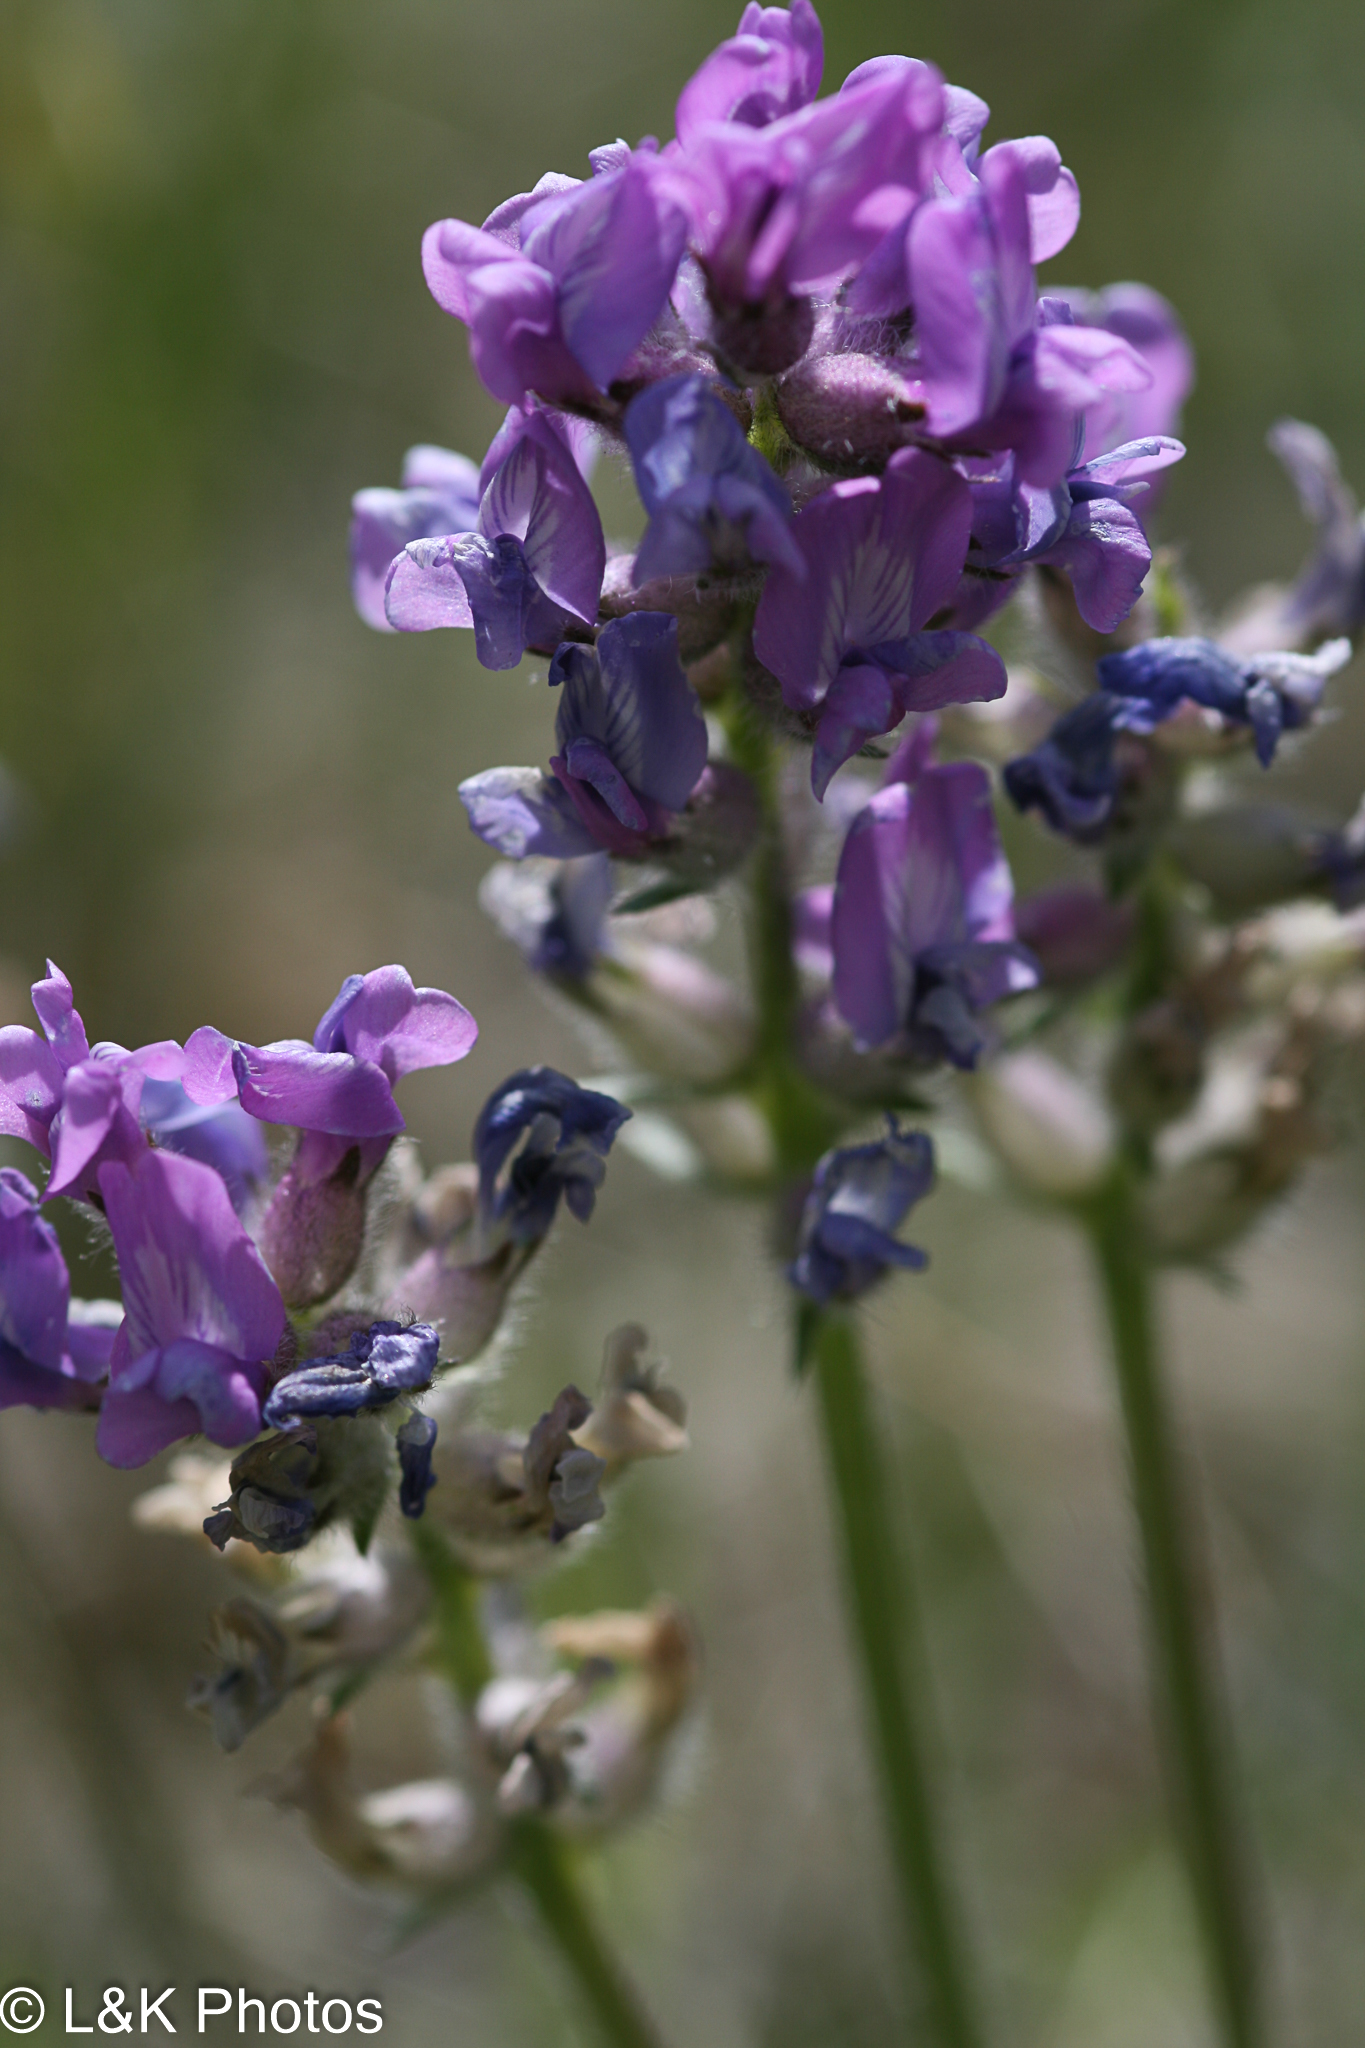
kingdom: Plantae
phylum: Tracheophyta
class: Magnoliopsida
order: Fabales
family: Fabaceae
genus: Oxytropis
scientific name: Oxytropis jordalii
